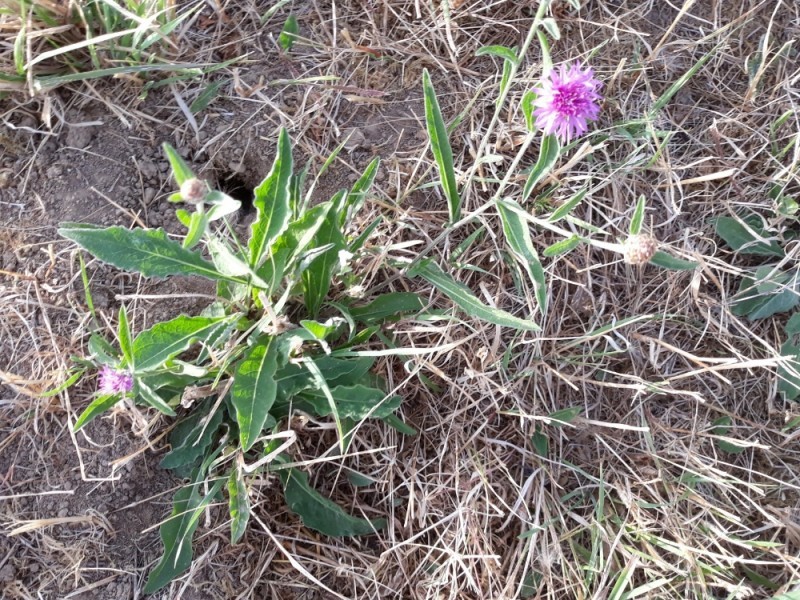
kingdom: Plantae
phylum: Tracheophyta
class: Magnoliopsida
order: Asterales
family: Asteraceae
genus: Centaurea
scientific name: Centaurea jacea
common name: Brown knapweed
